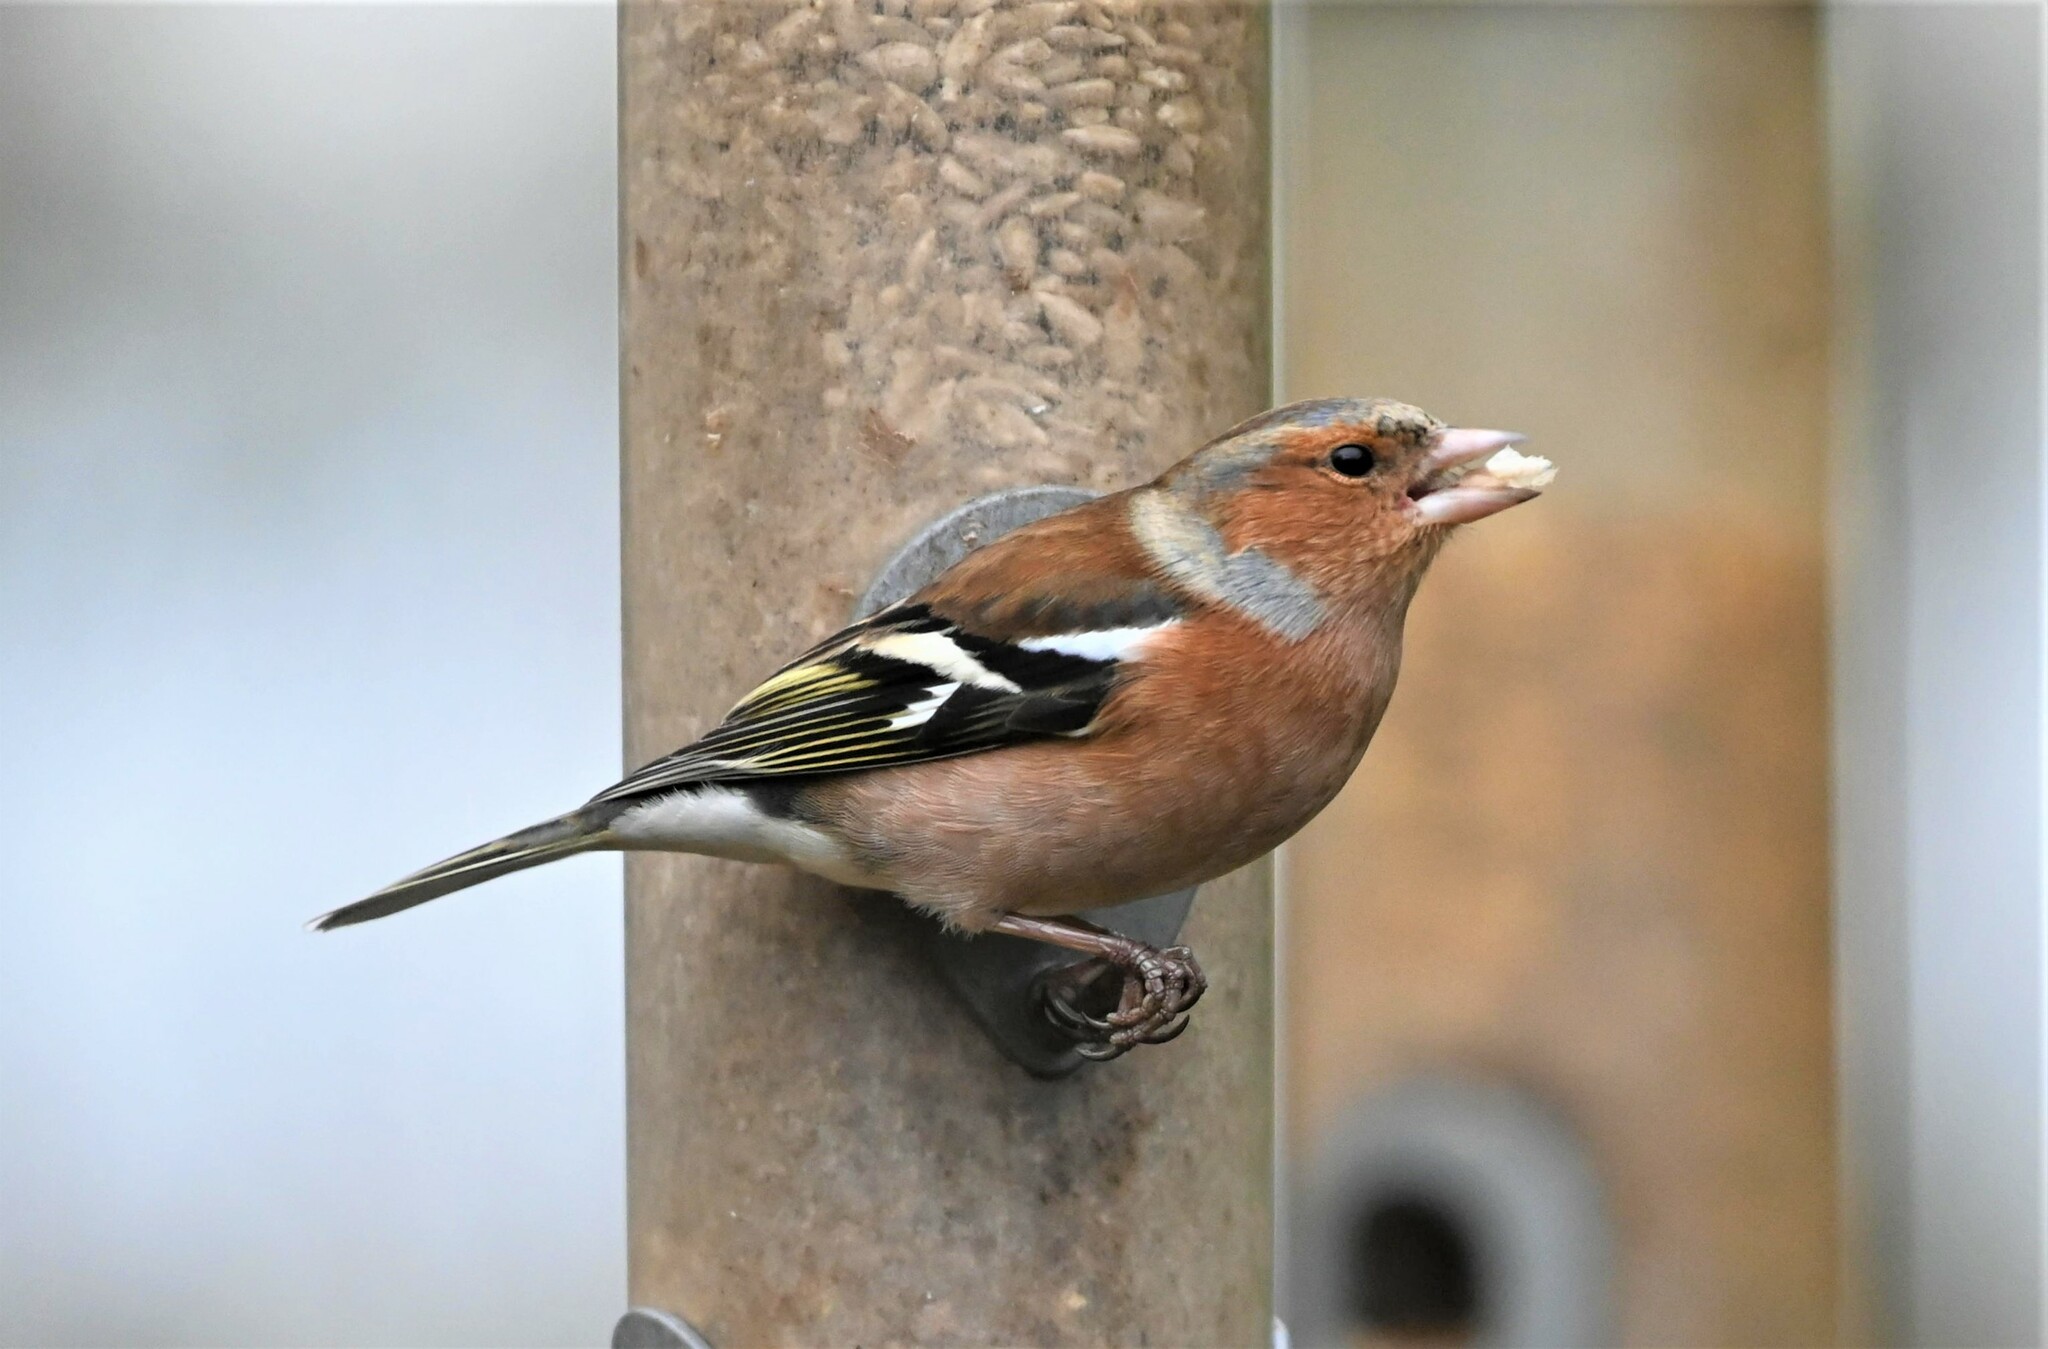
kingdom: Animalia
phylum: Chordata
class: Aves
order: Passeriformes
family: Fringillidae
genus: Fringilla
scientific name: Fringilla coelebs
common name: Common chaffinch
